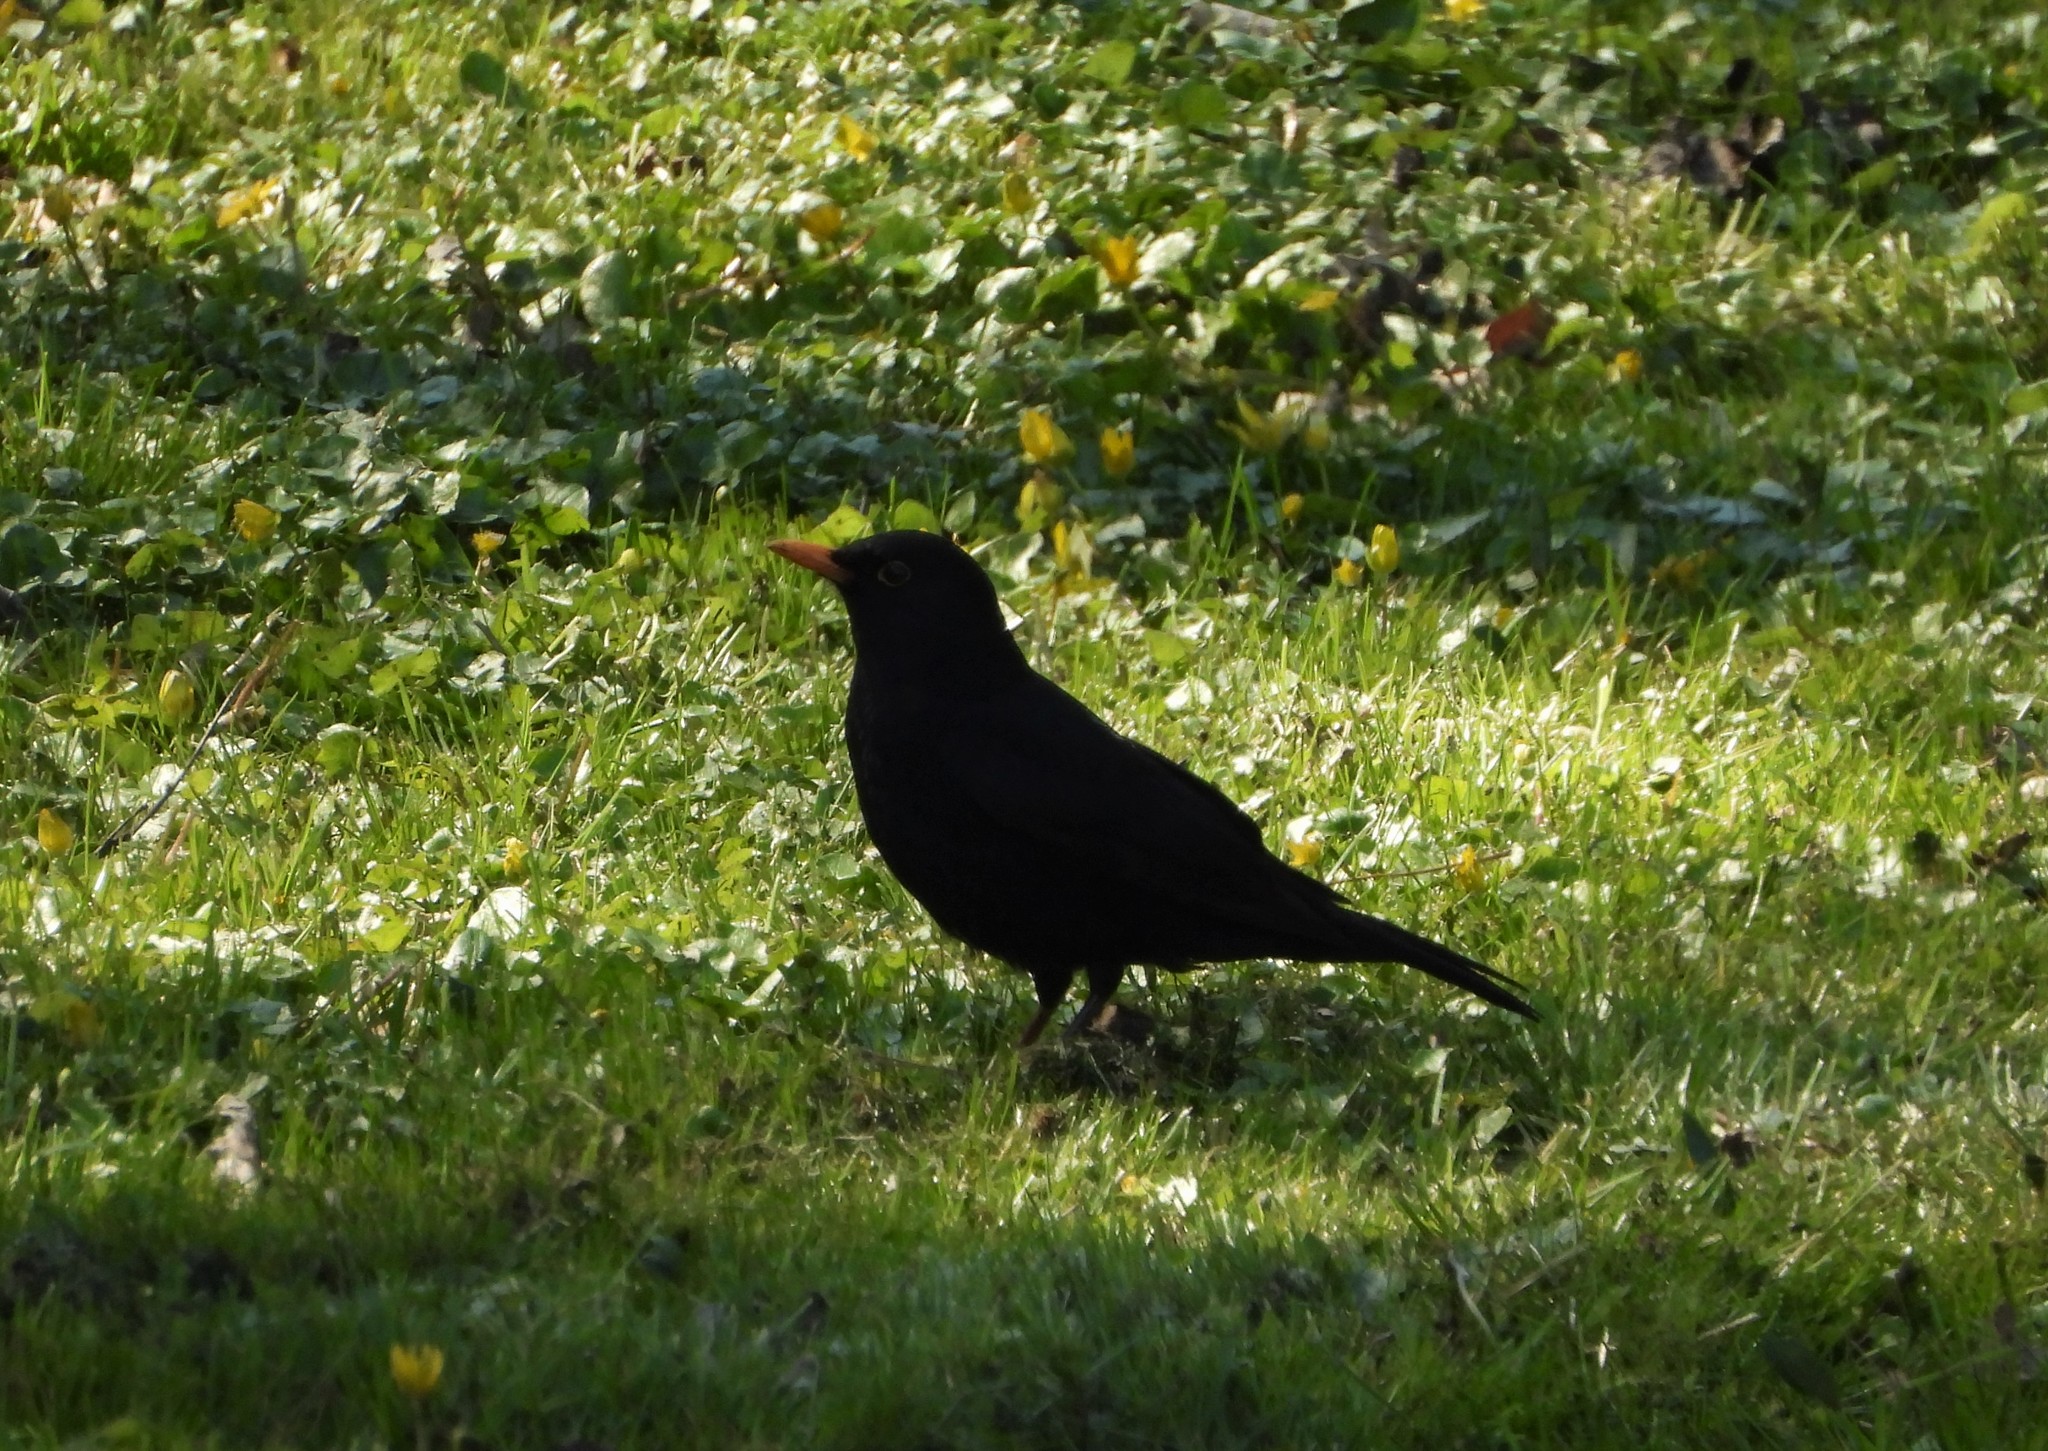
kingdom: Animalia
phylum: Chordata
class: Aves
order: Passeriformes
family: Turdidae
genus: Turdus
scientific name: Turdus merula
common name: Common blackbird
